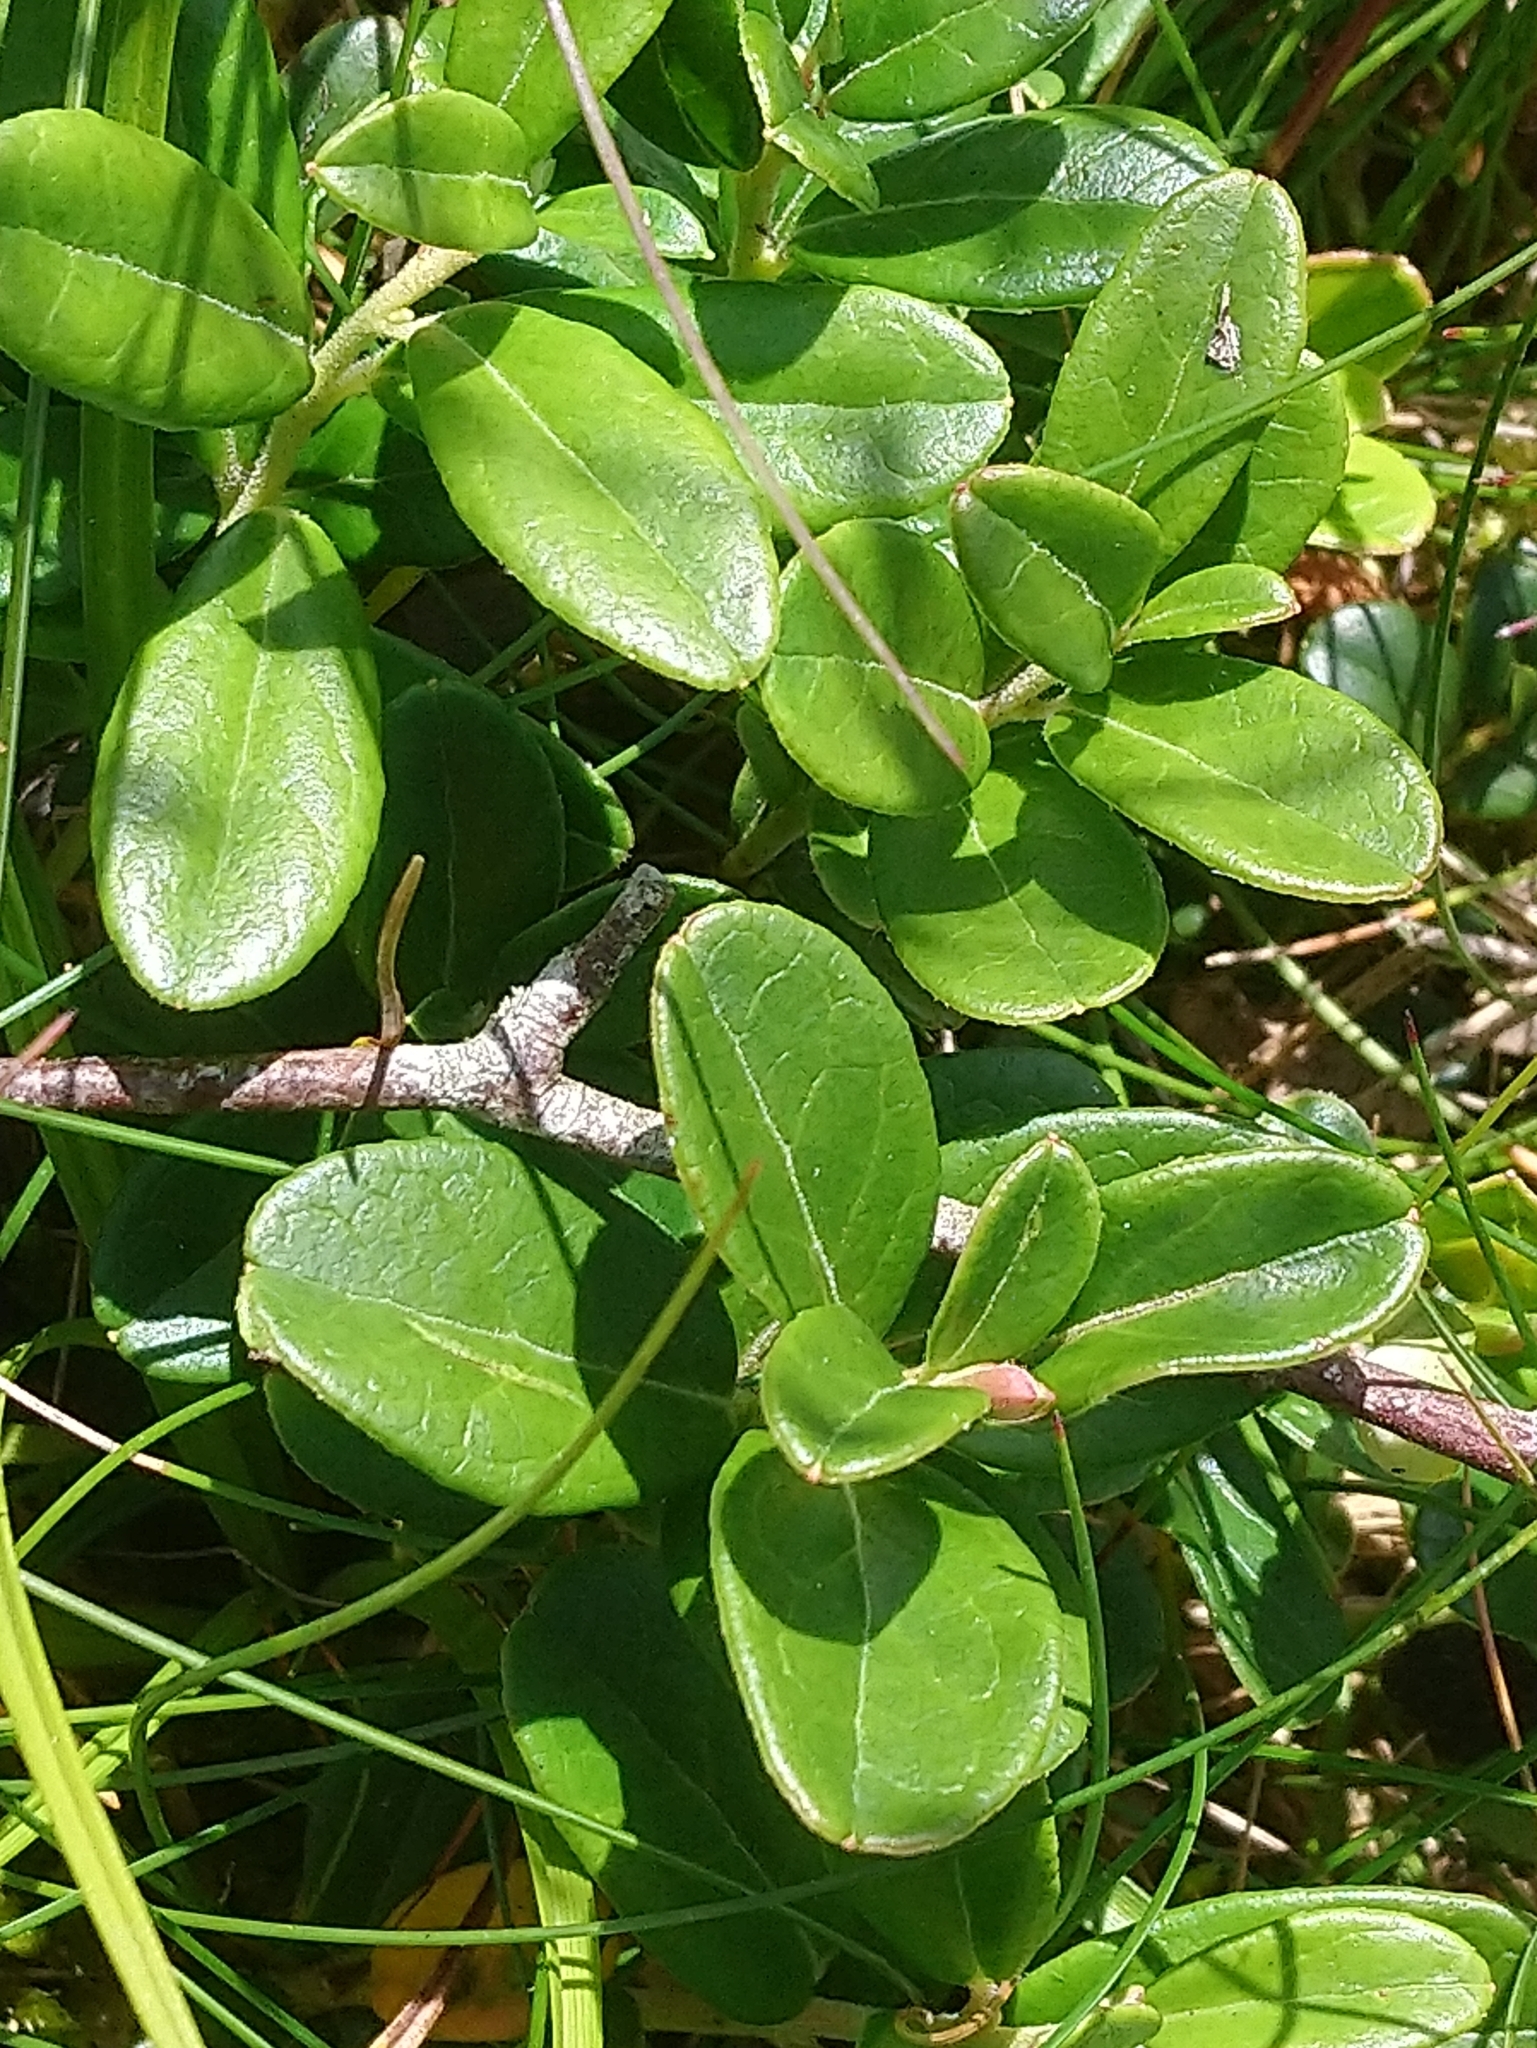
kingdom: Plantae
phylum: Tracheophyta
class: Magnoliopsida
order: Ericales
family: Ericaceae
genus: Vaccinium
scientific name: Vaccinium vitis-idaea
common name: Cowberry
